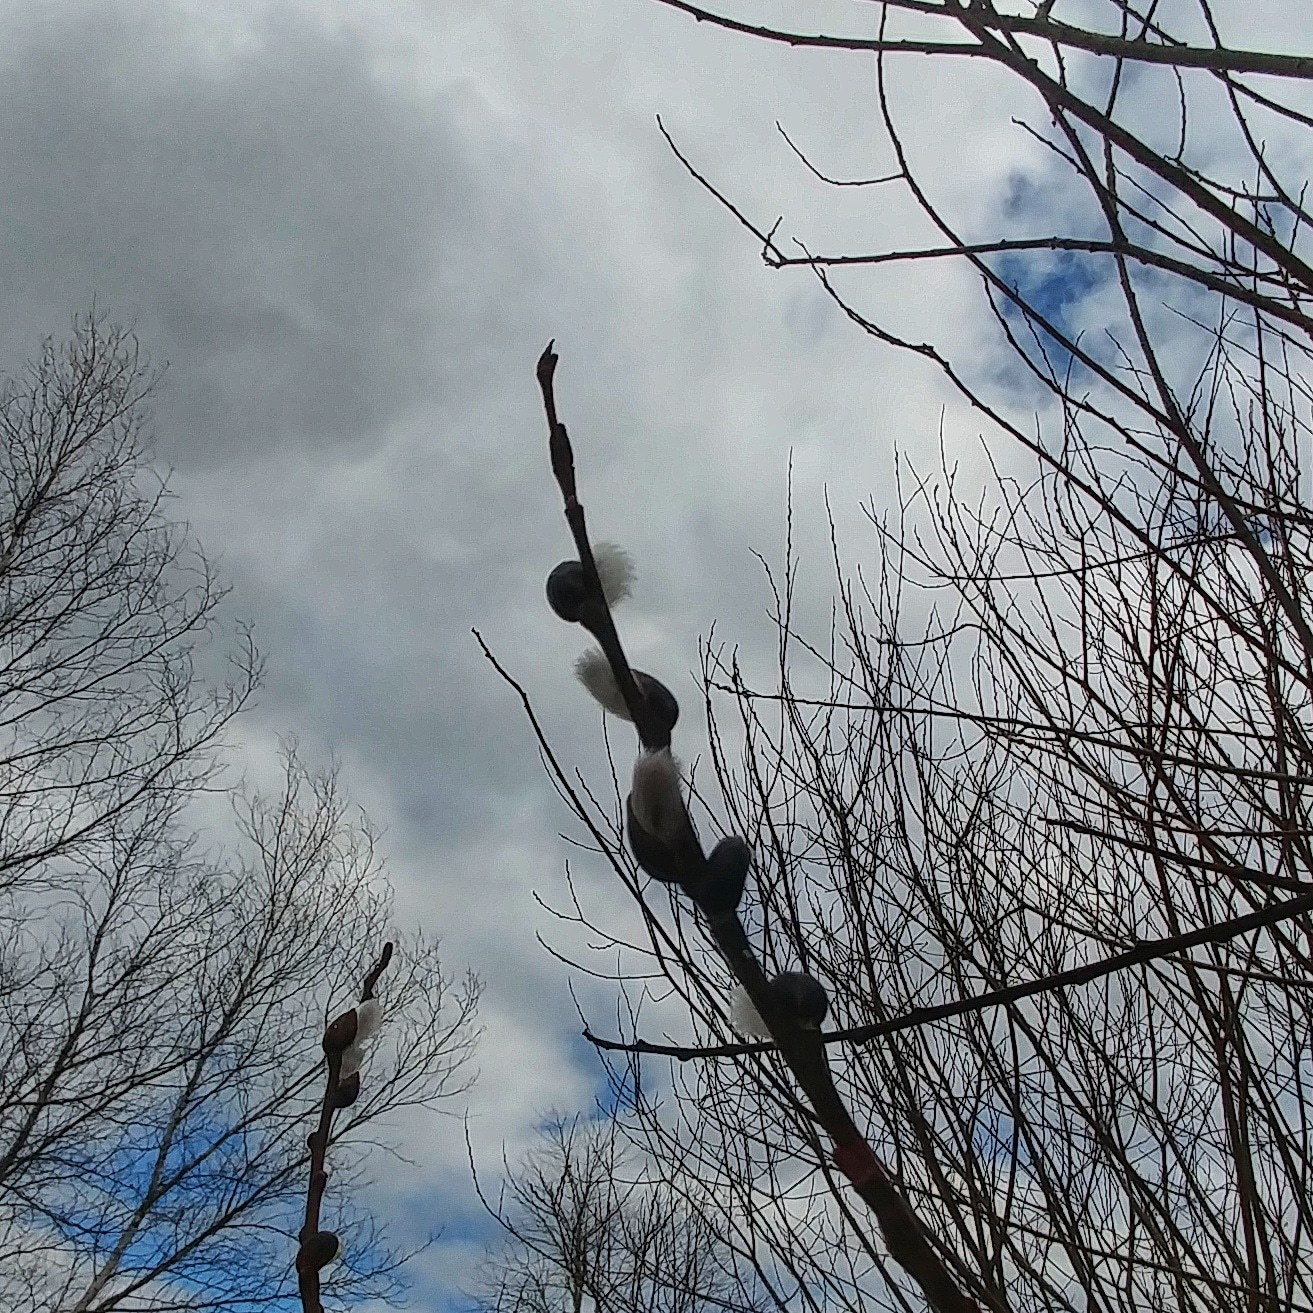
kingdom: Plantae
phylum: Tracheophyta
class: Magnoliopsida
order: Malpighiales
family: Salicaceae
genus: Salix
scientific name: Salix discolor
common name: Glaucous willow
